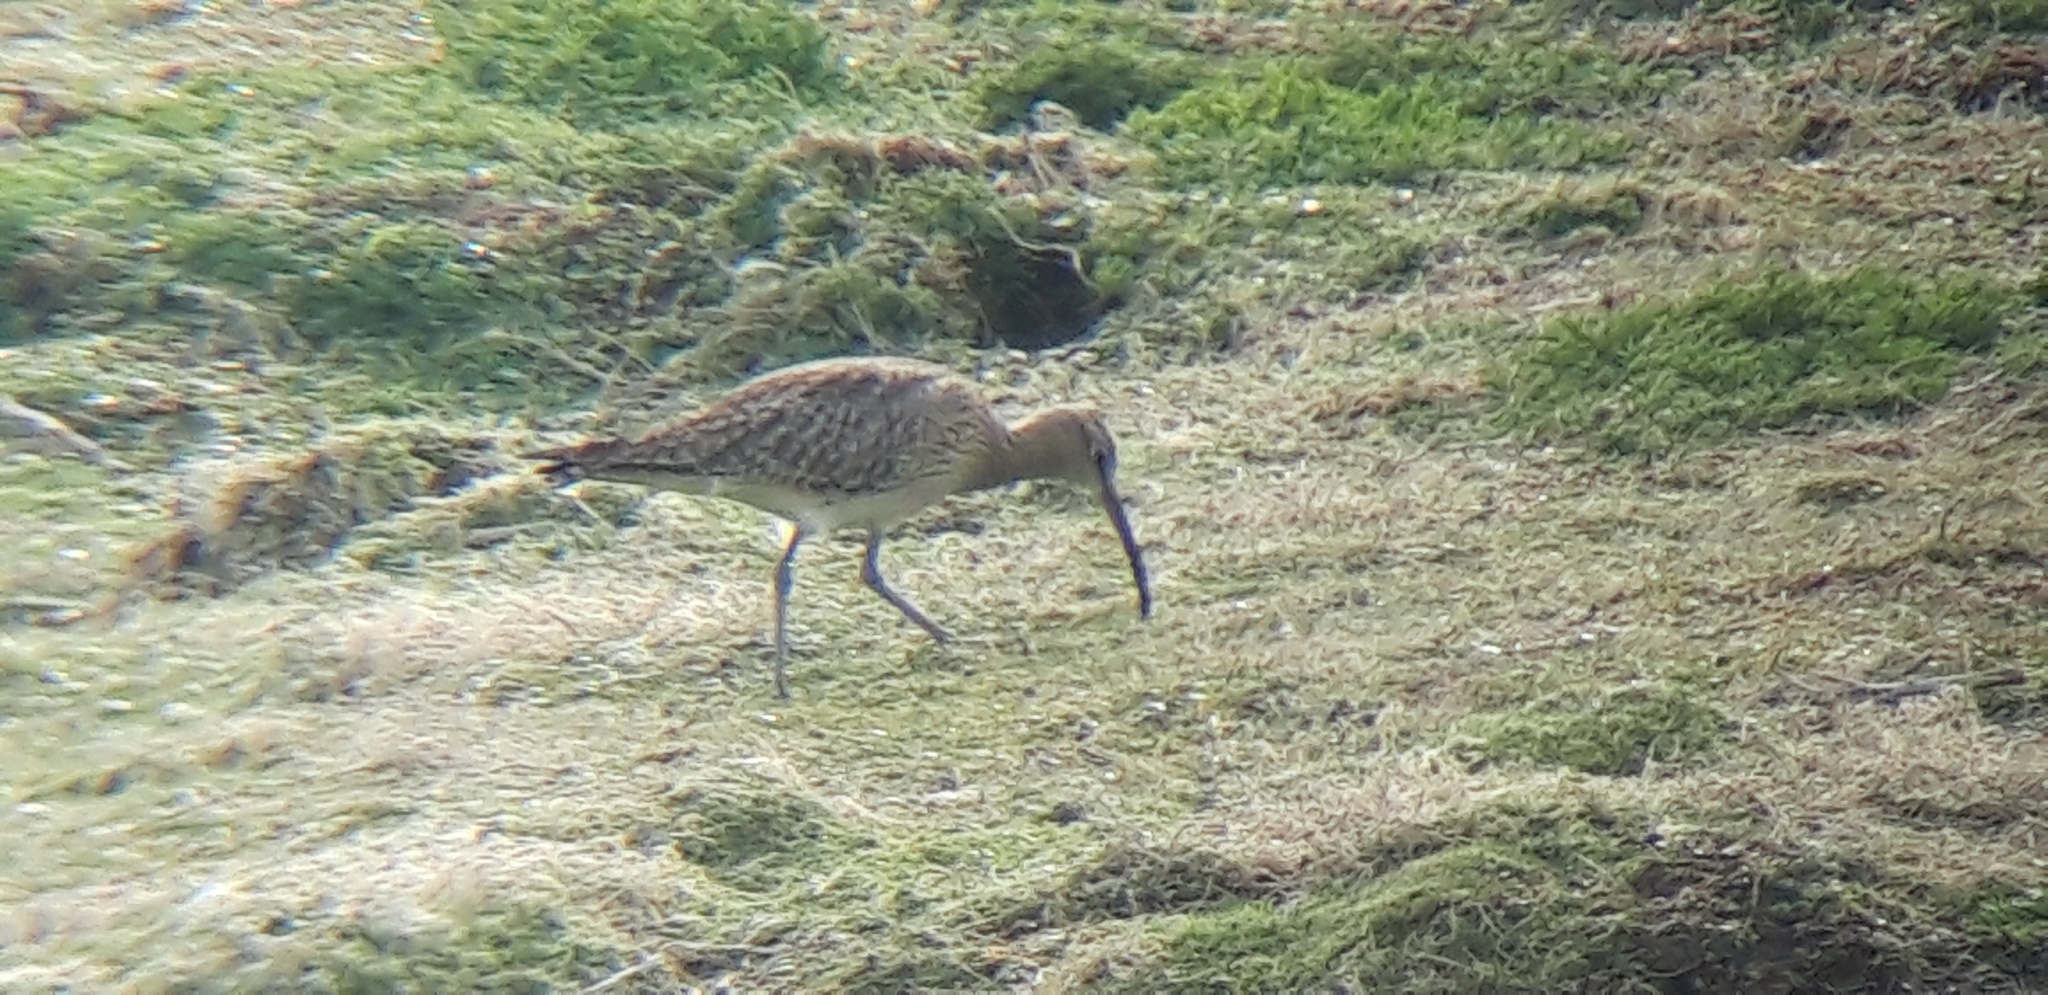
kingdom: Animalia
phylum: Chordata
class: Aves
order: Charadriiformes
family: Scolopacidae
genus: Numenius
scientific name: Numenius phaeopus
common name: Whimbrel
